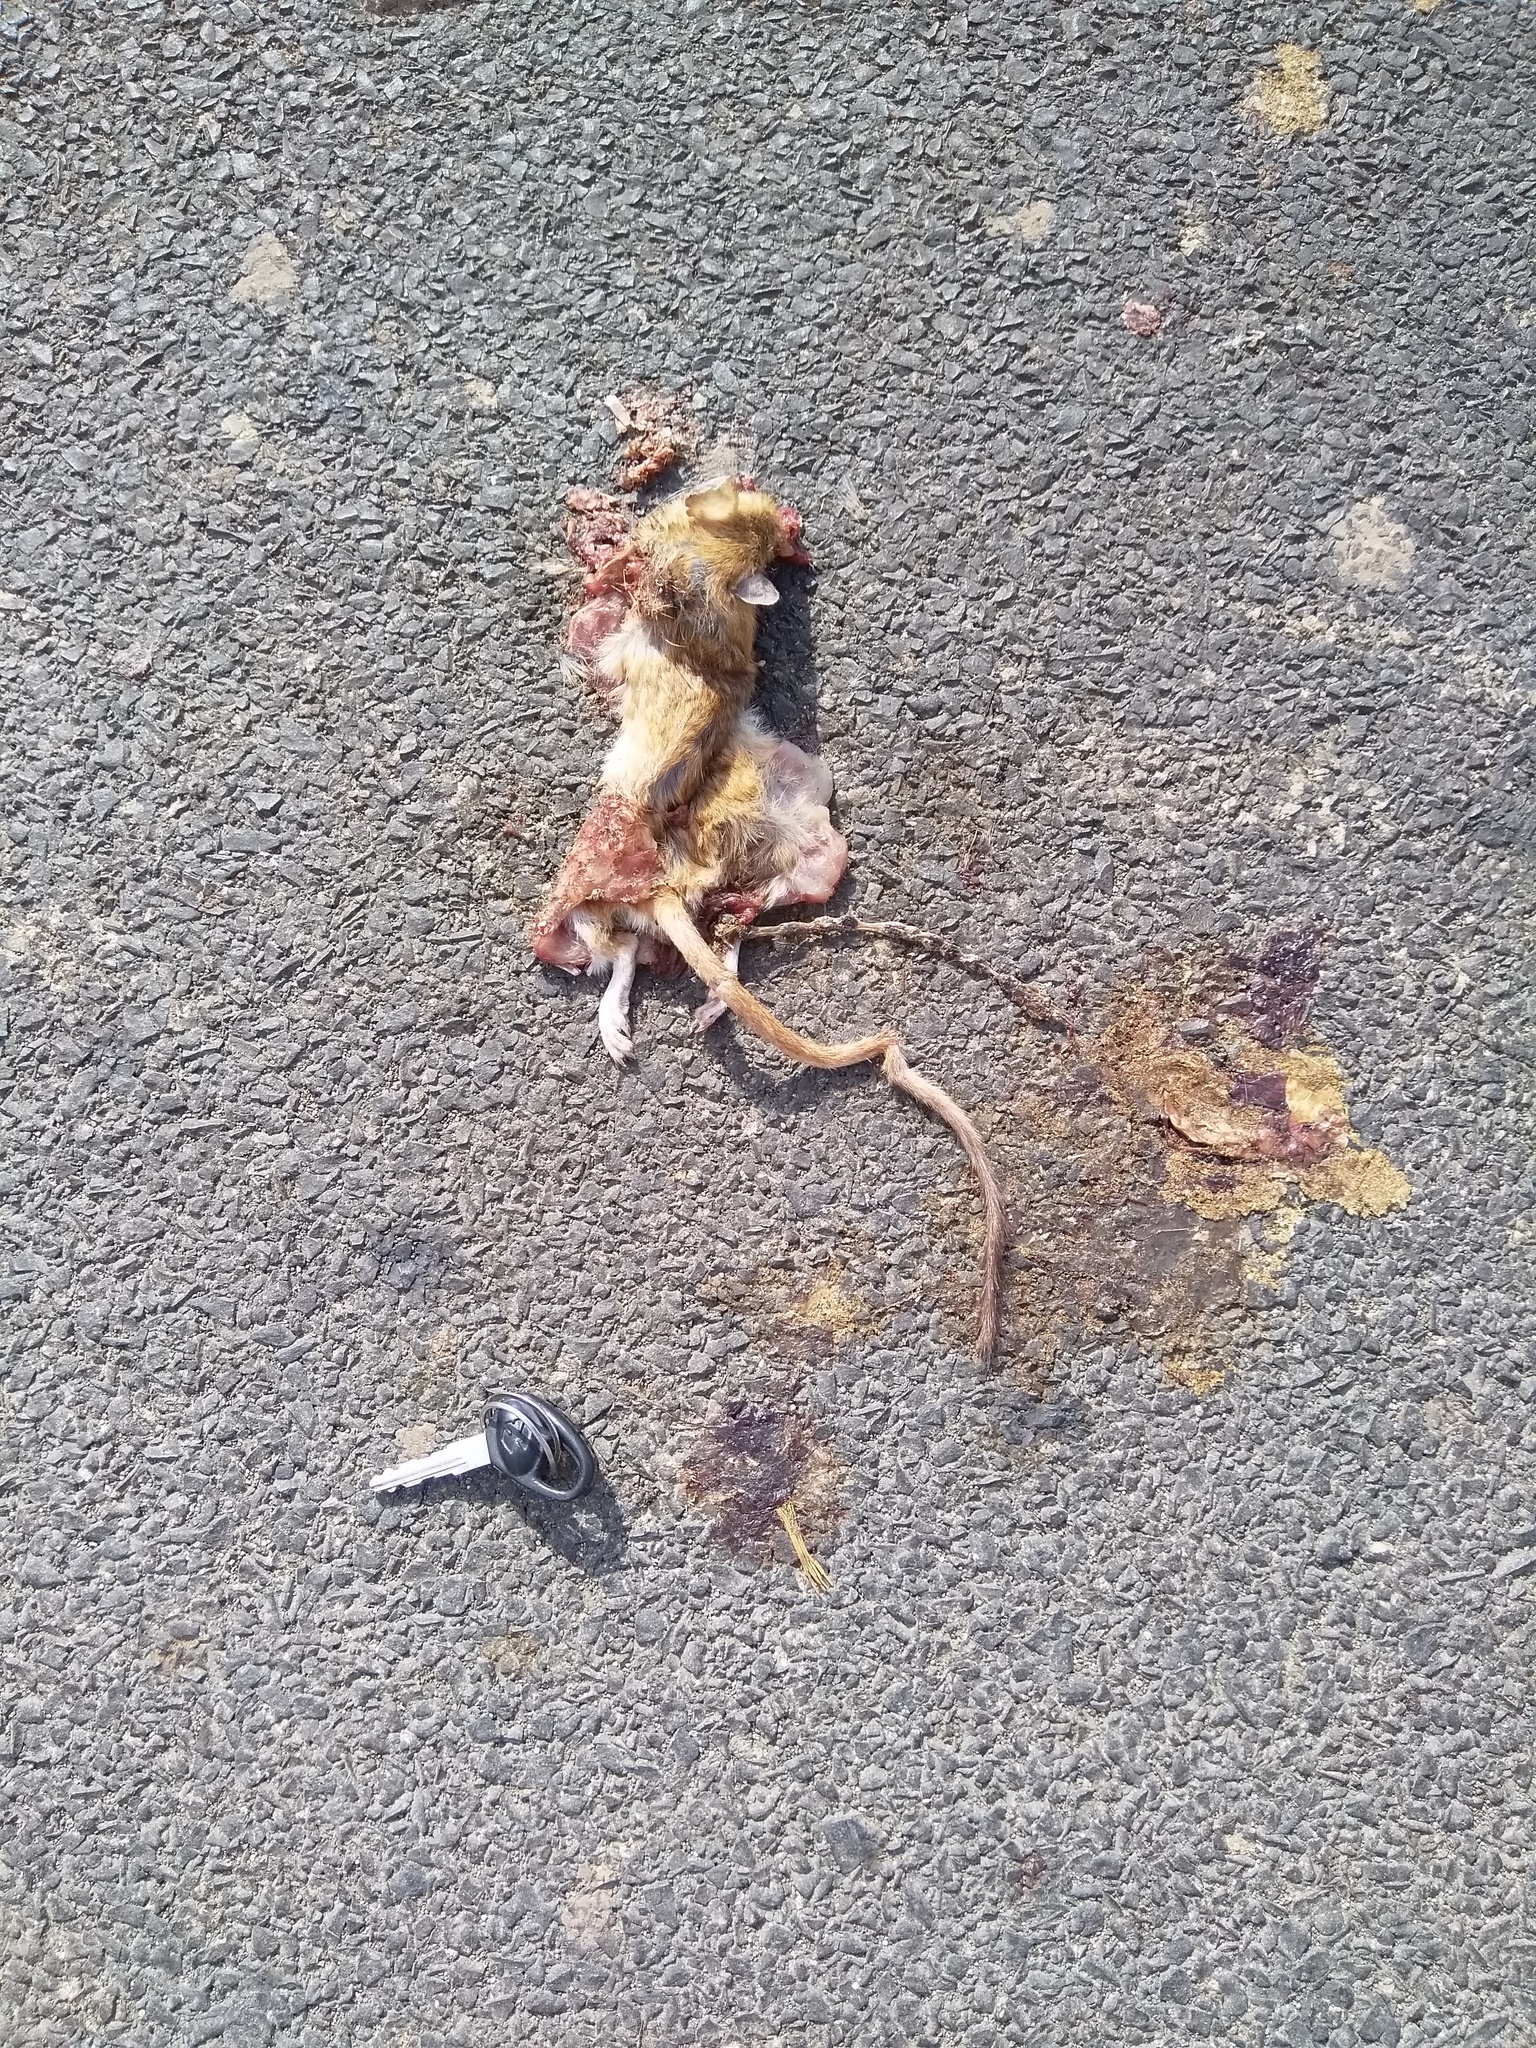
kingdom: Animalia
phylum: Chordata
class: Mammalia
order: Rodentia
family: Muridae
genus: Tatera
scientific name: Tatera indica
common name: Indian gerbil
